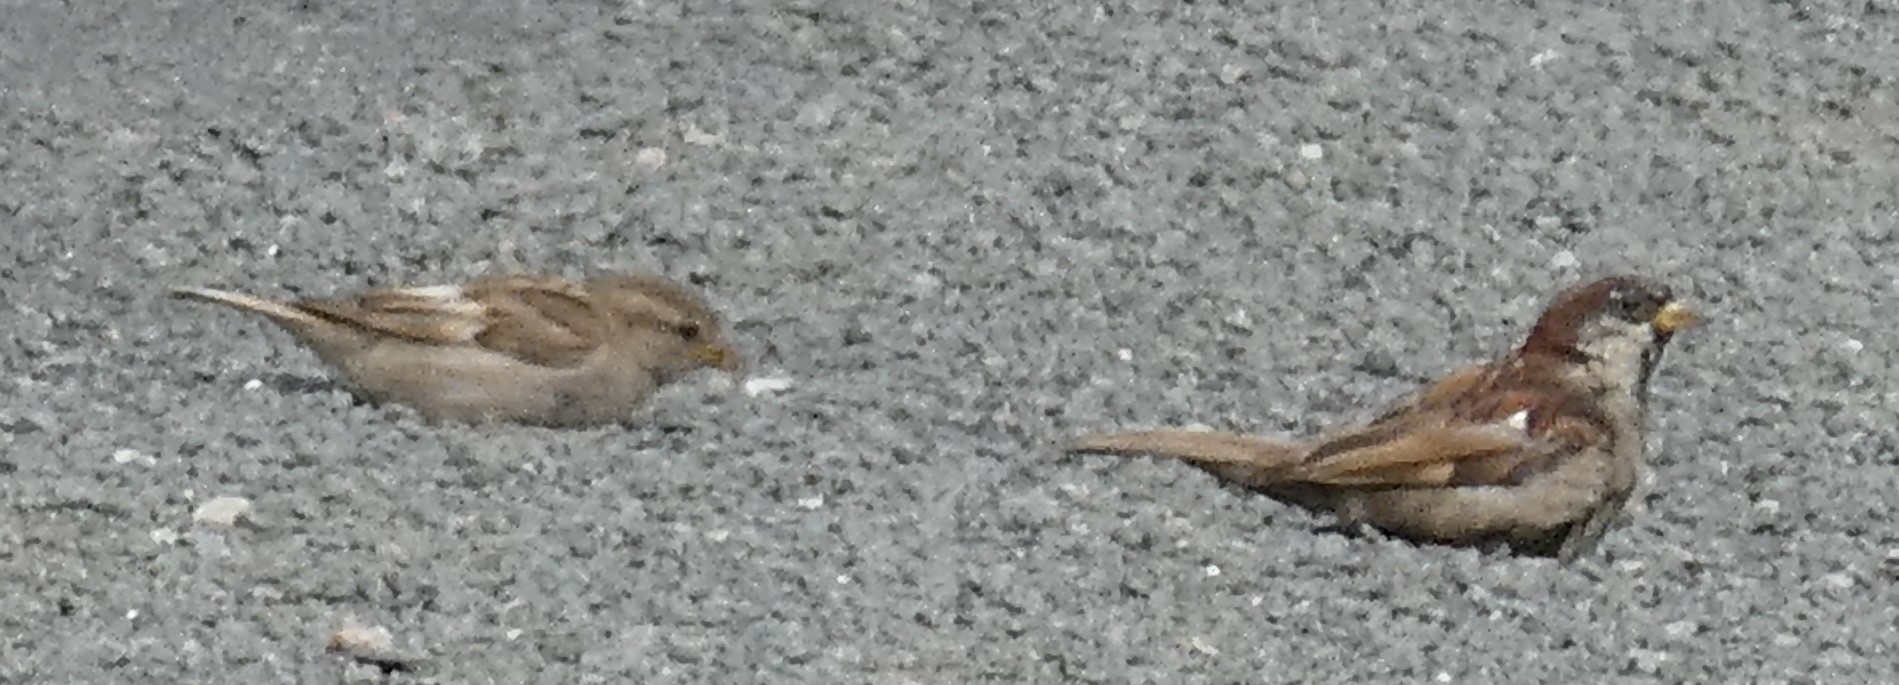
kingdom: Animalia
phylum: Chordata
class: Aves
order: Passeriformes
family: Passeridae
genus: Passer
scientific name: Passer domesticus
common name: House sparrow
